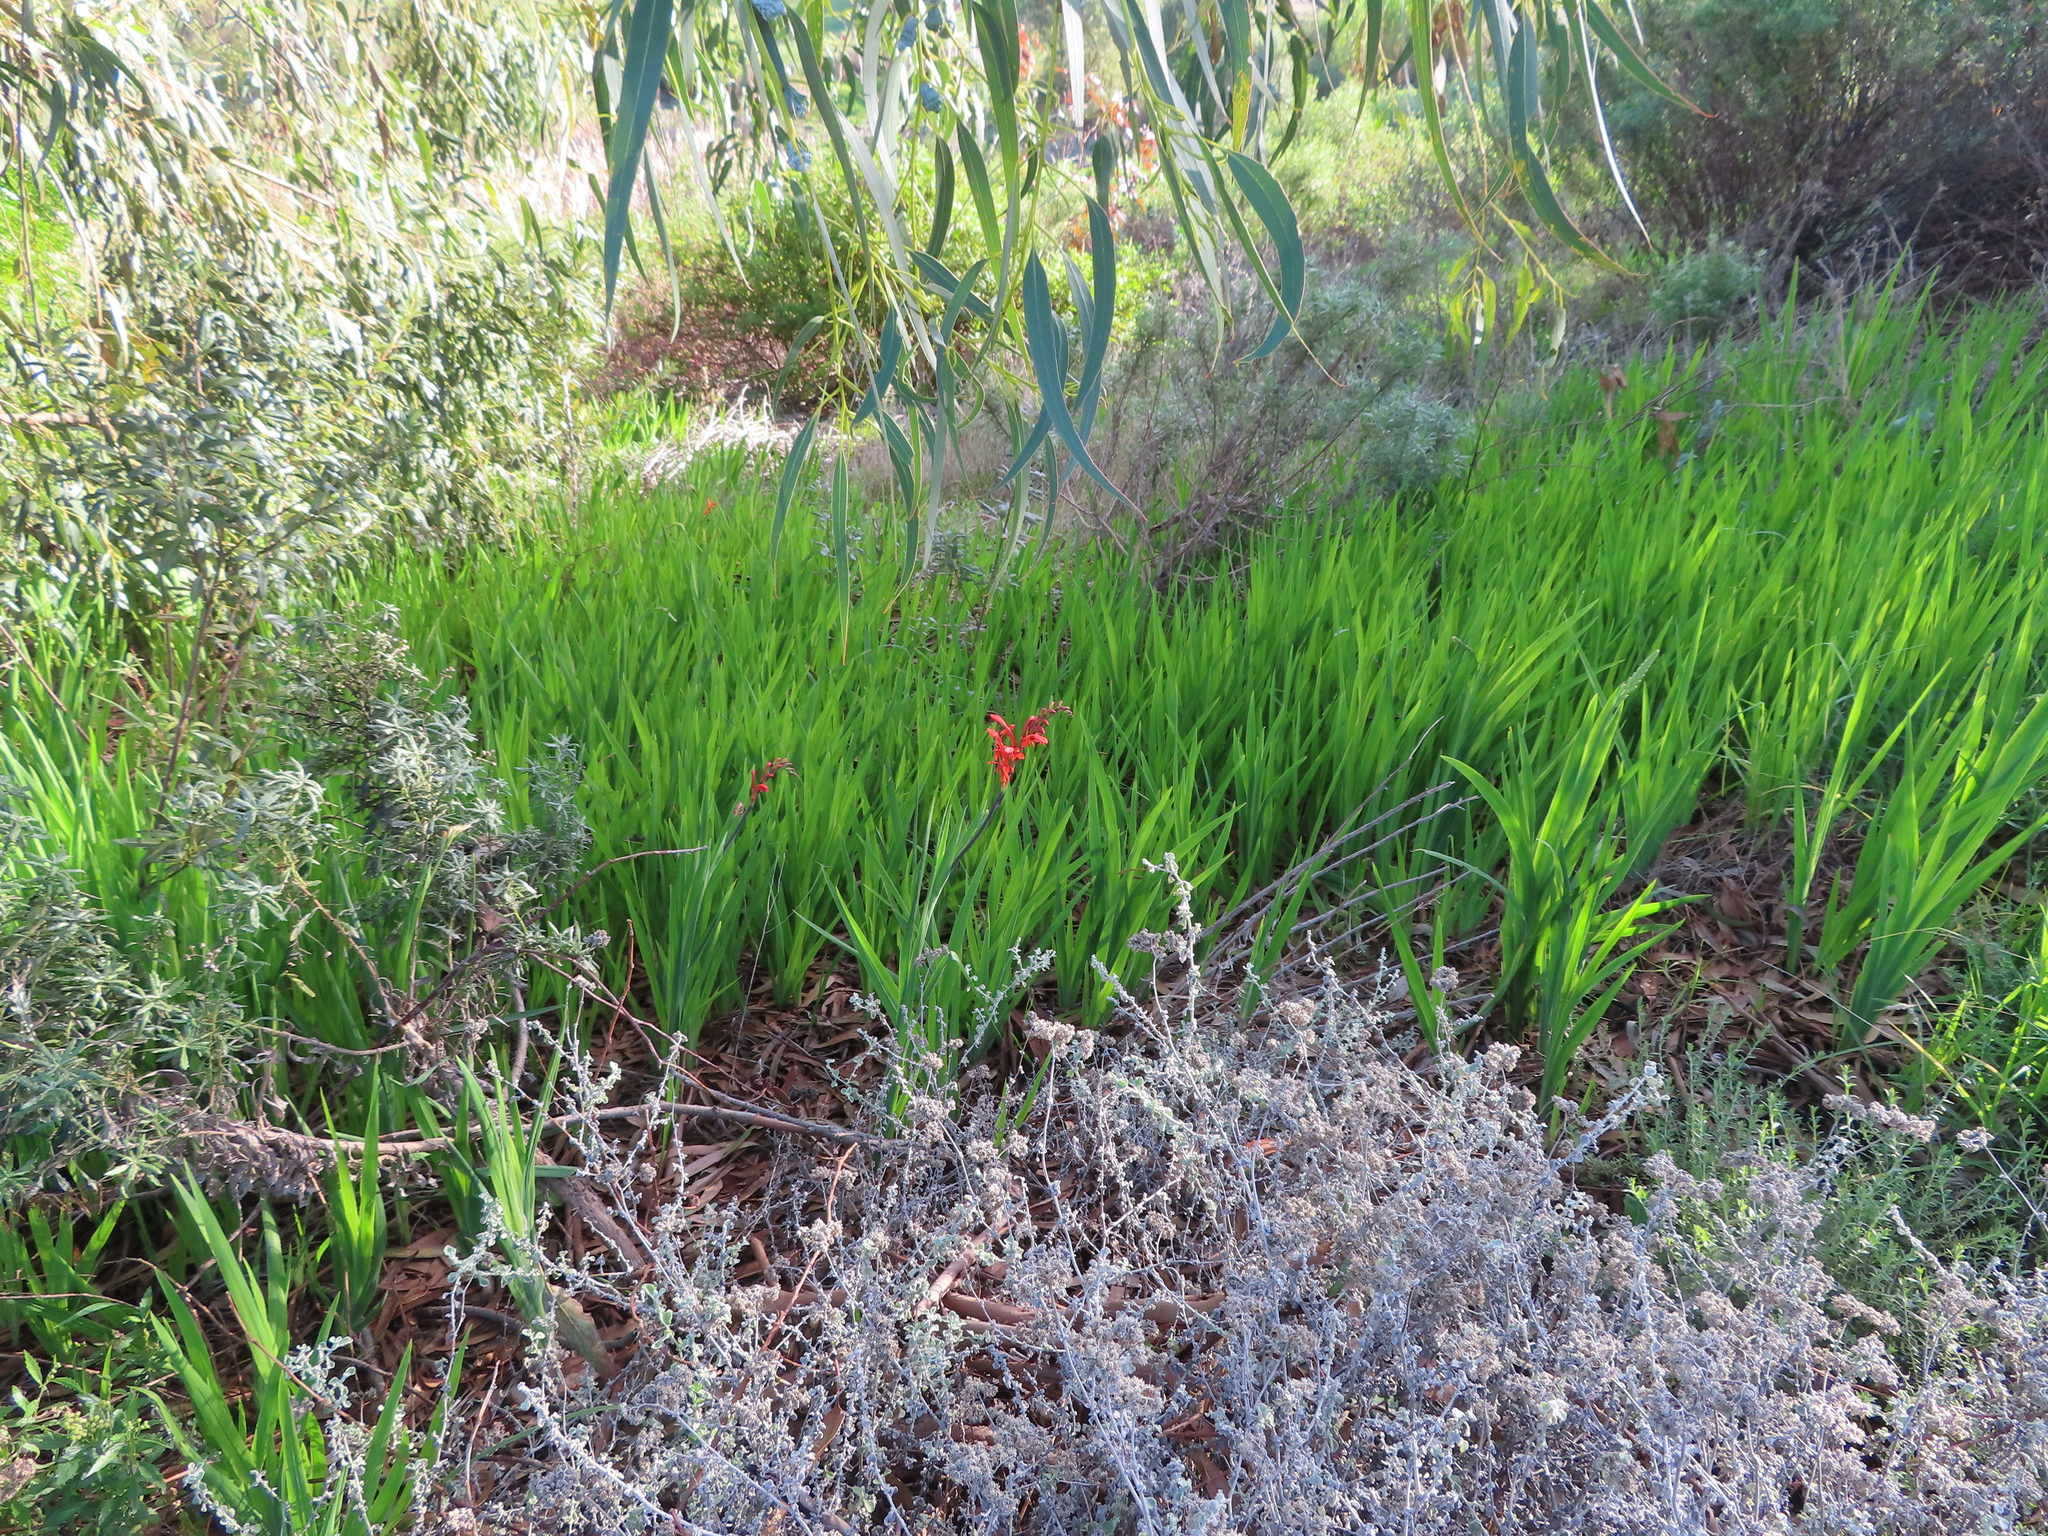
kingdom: Plantae
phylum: Tracheophyta
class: Liliopsida
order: Asparagales
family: Iridaceae
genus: Chasmanthe
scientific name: Chasmanthe aethiopica
